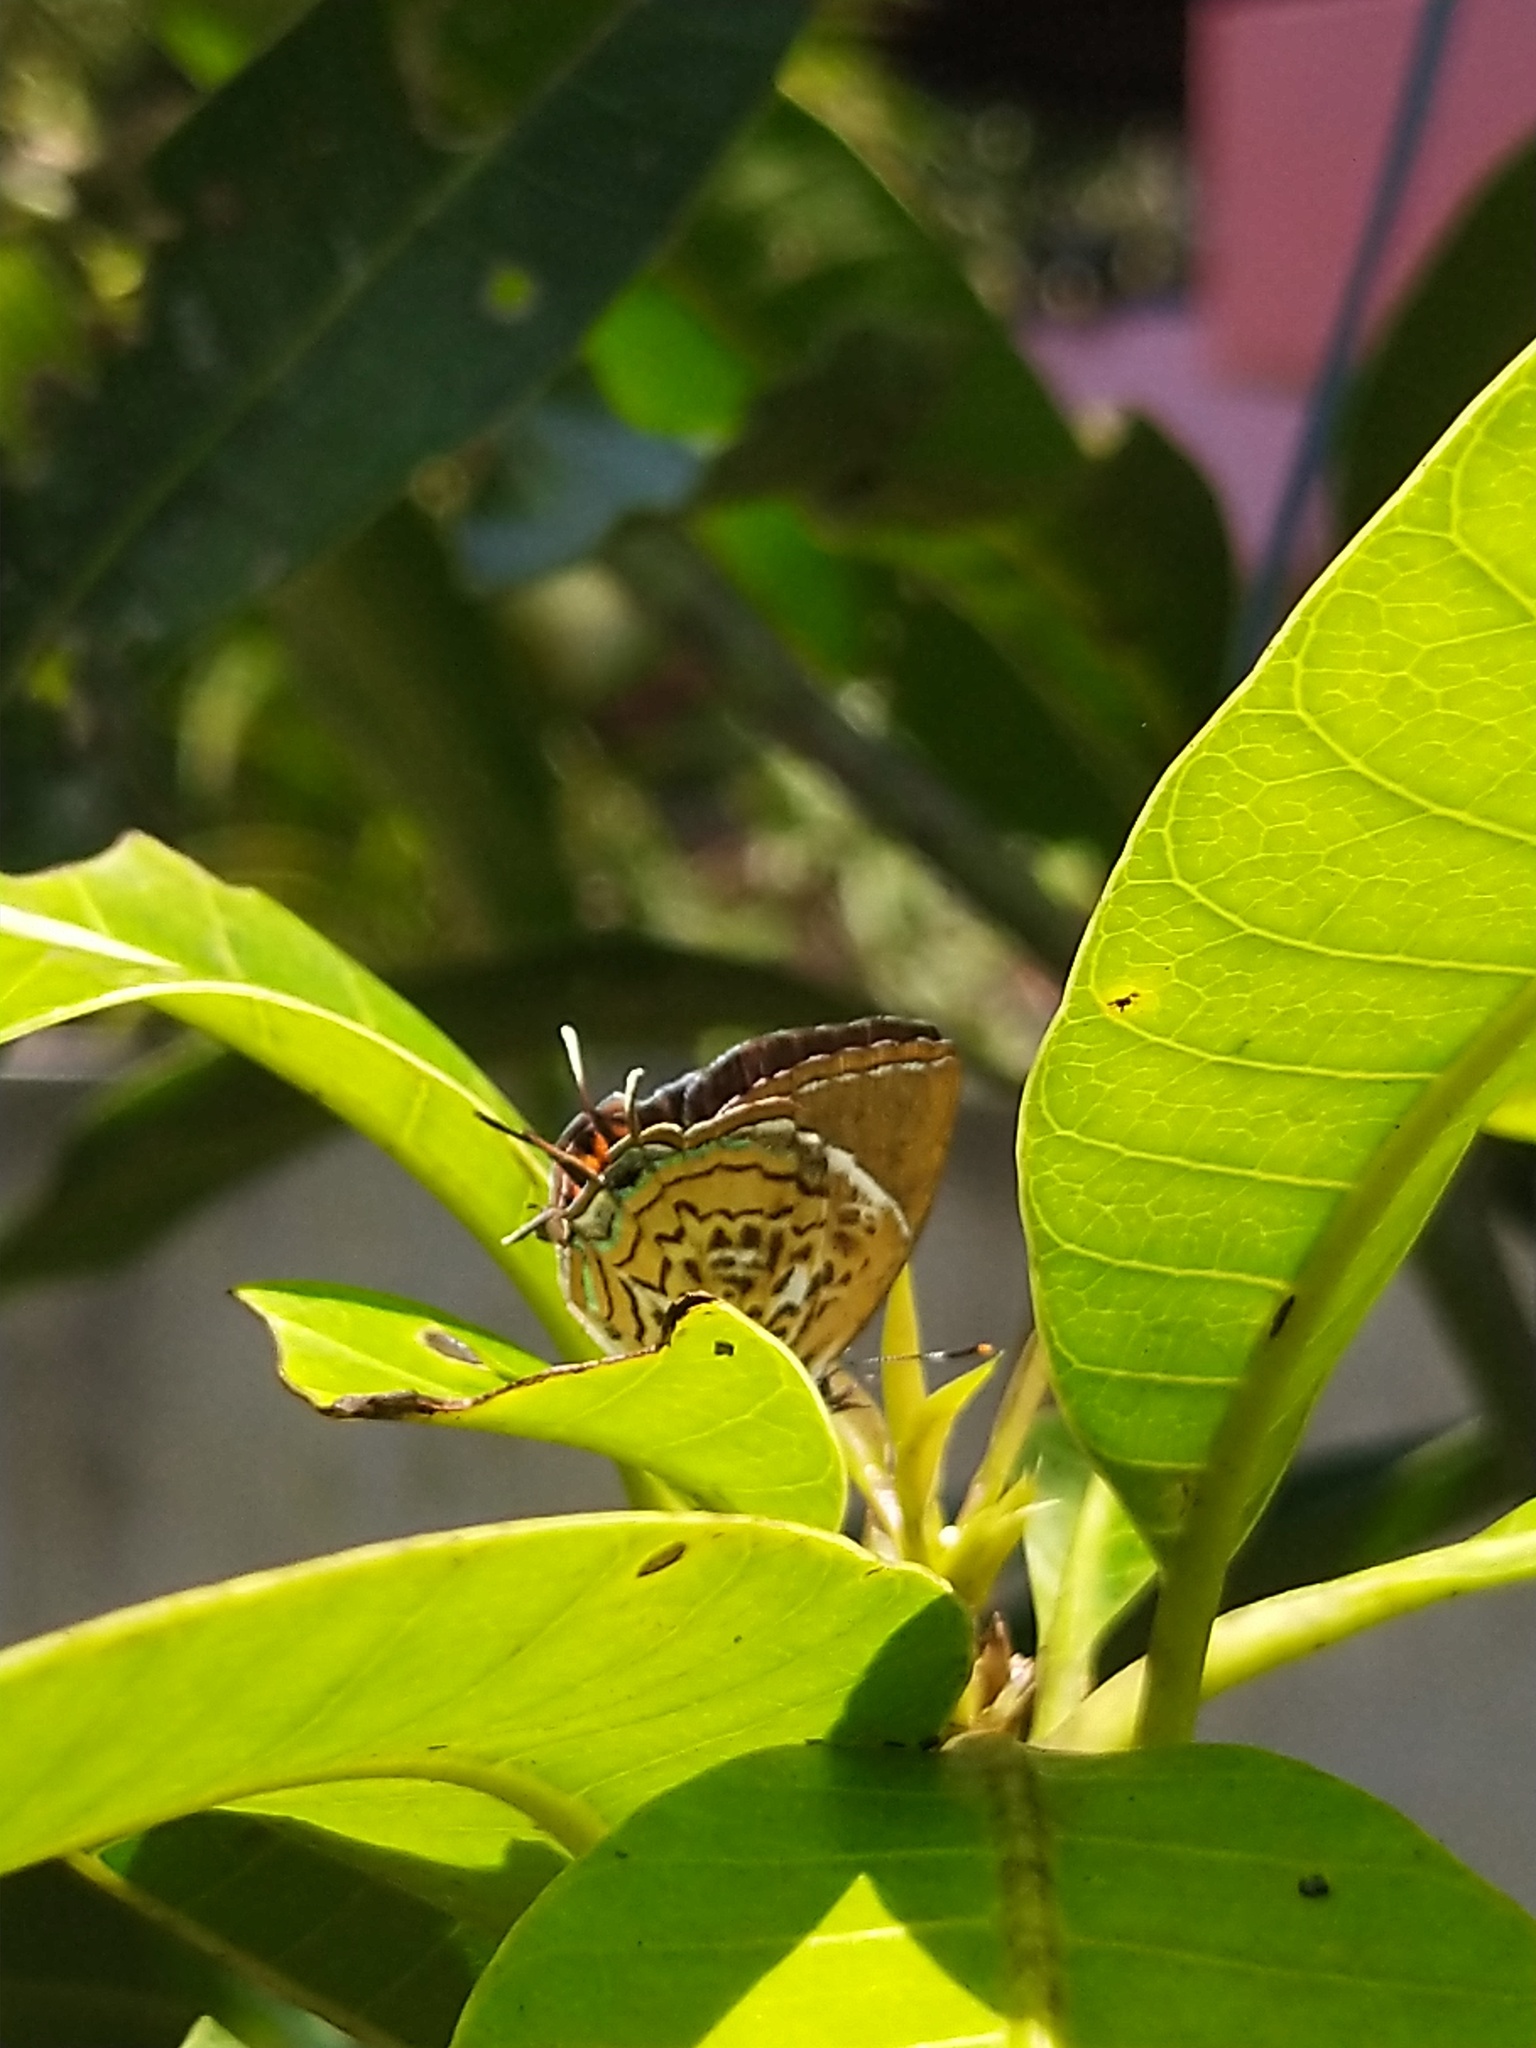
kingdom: Animalia
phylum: Arthropoda
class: Insecta
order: Lepidoptera
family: Lycaenidae
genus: Rathinda
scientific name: Rathinda amor
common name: Monkey puzzle
